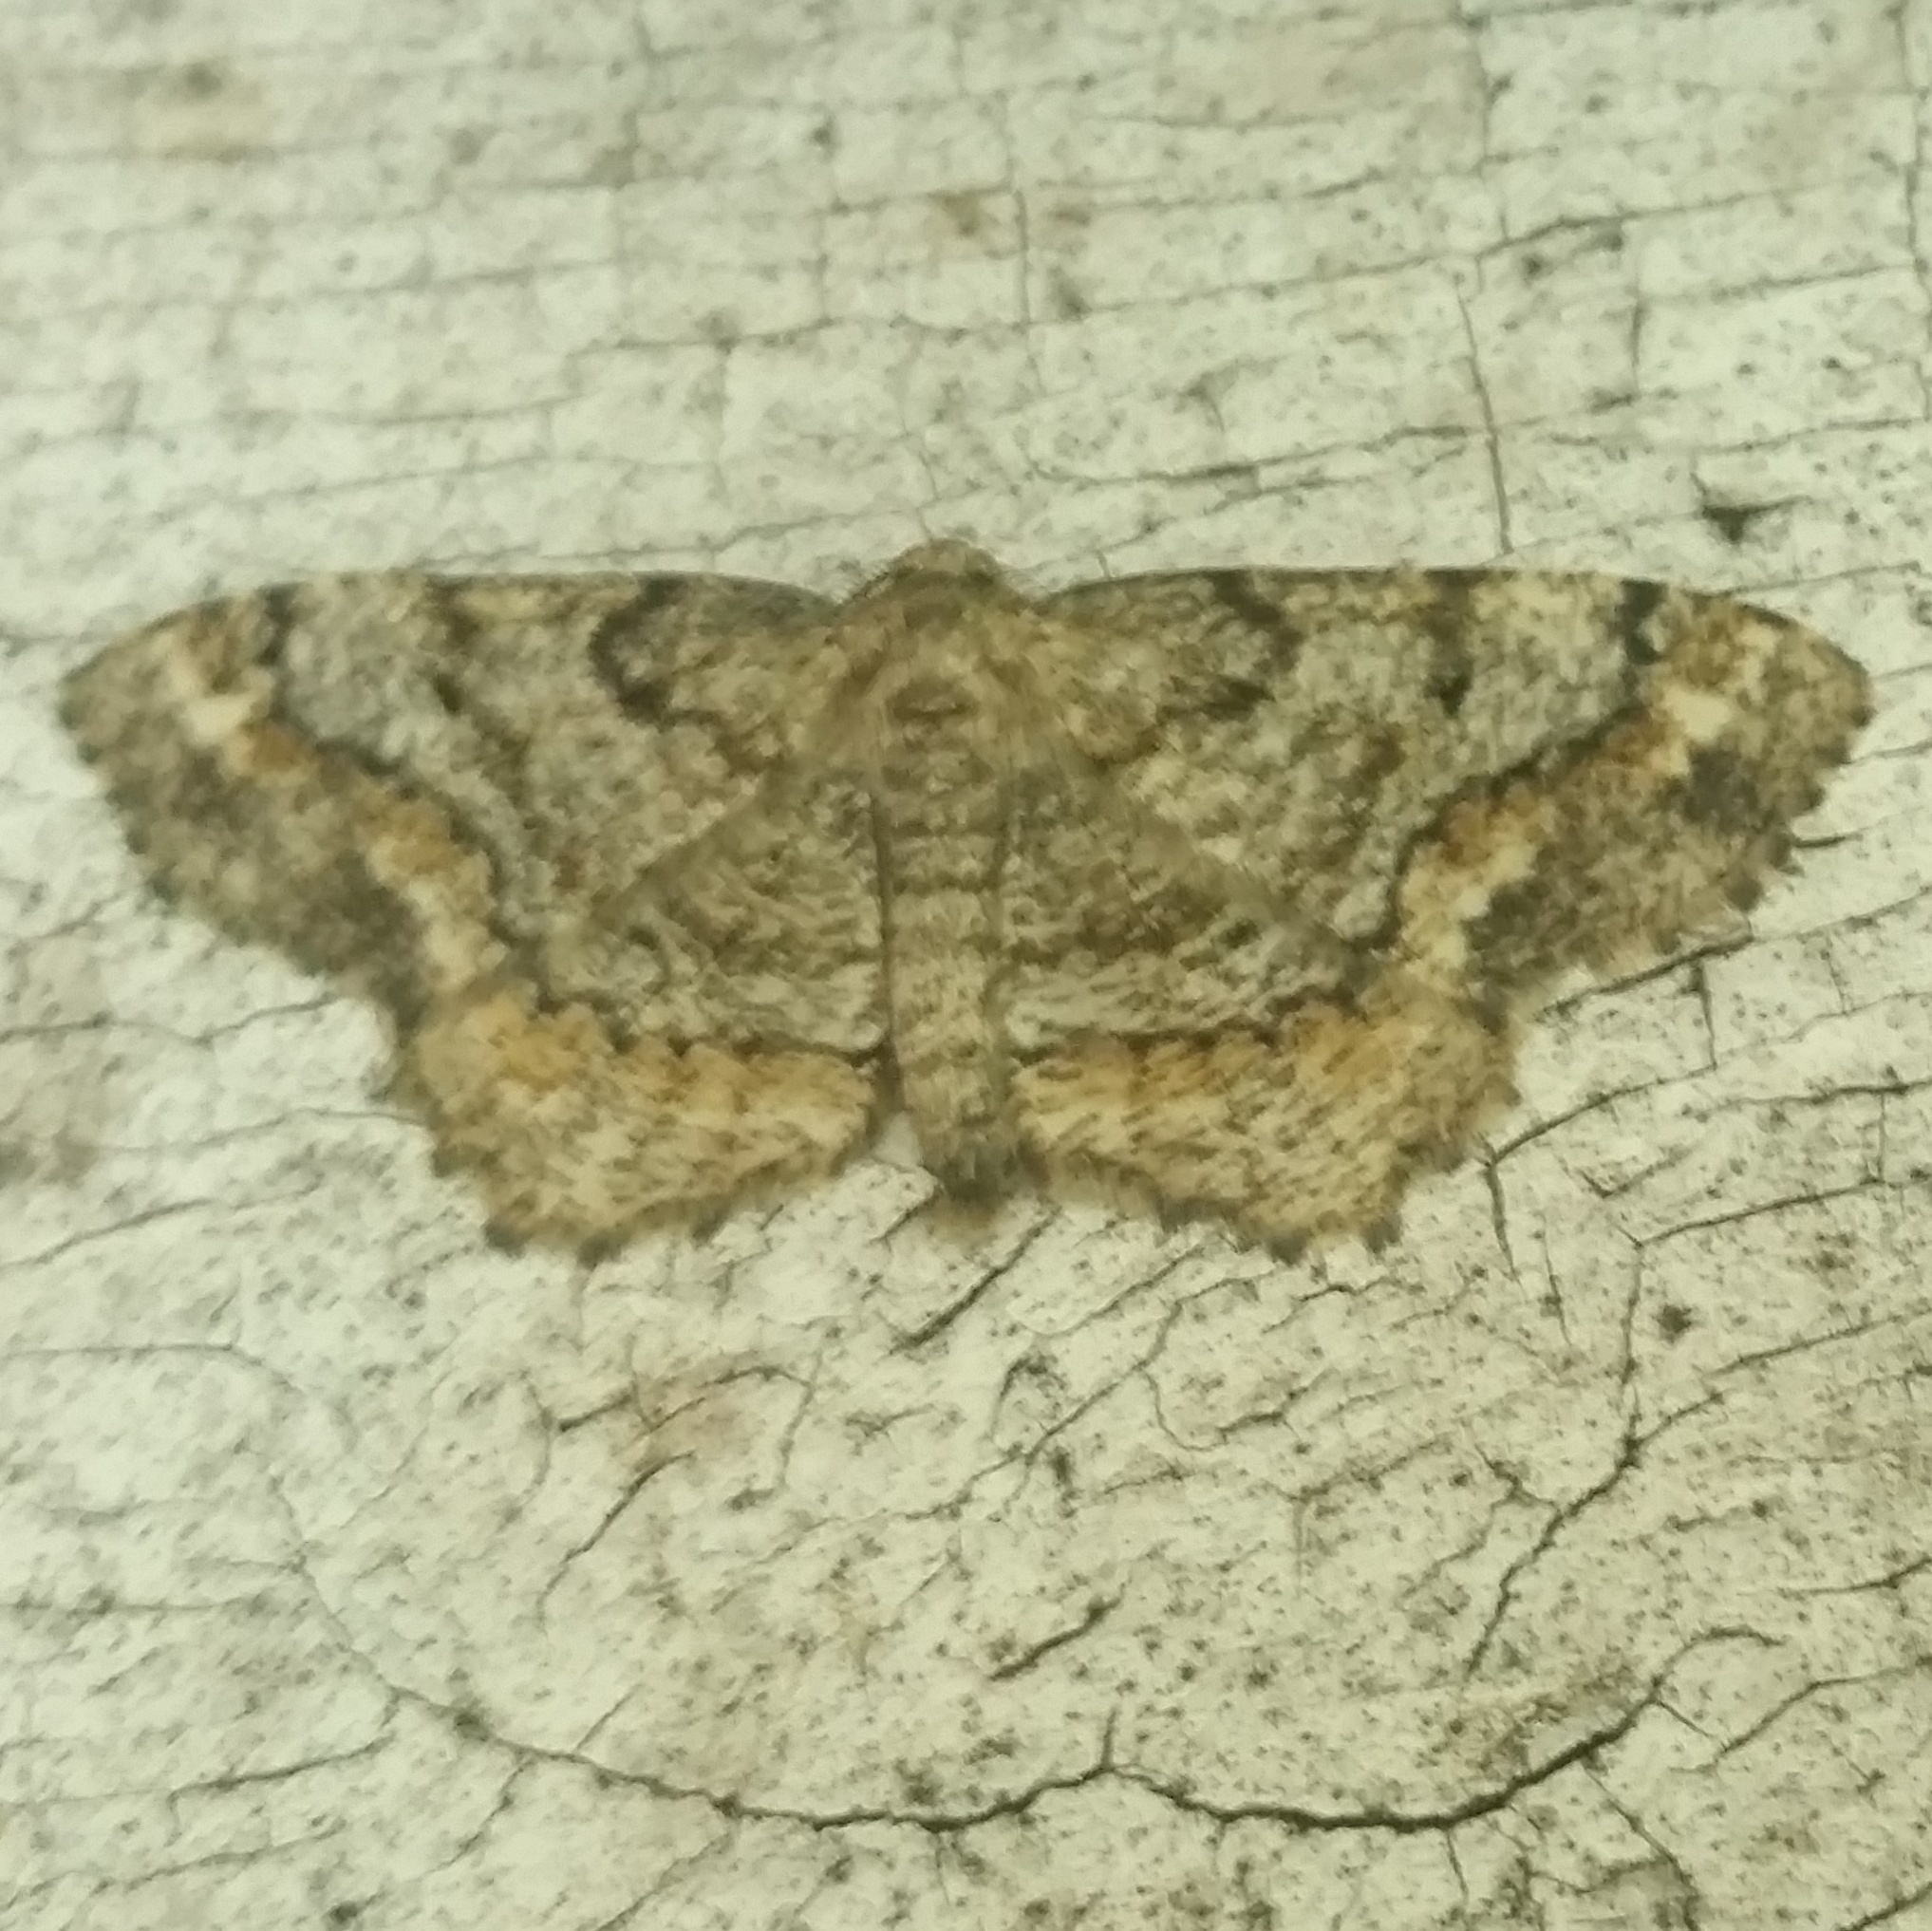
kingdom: Animalia
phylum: Arthropoda
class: Insecta
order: Lepidoptera
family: Geometridae
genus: Hypagyrtis
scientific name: Hypagyrtis unipunctata
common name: One-spotted variant
